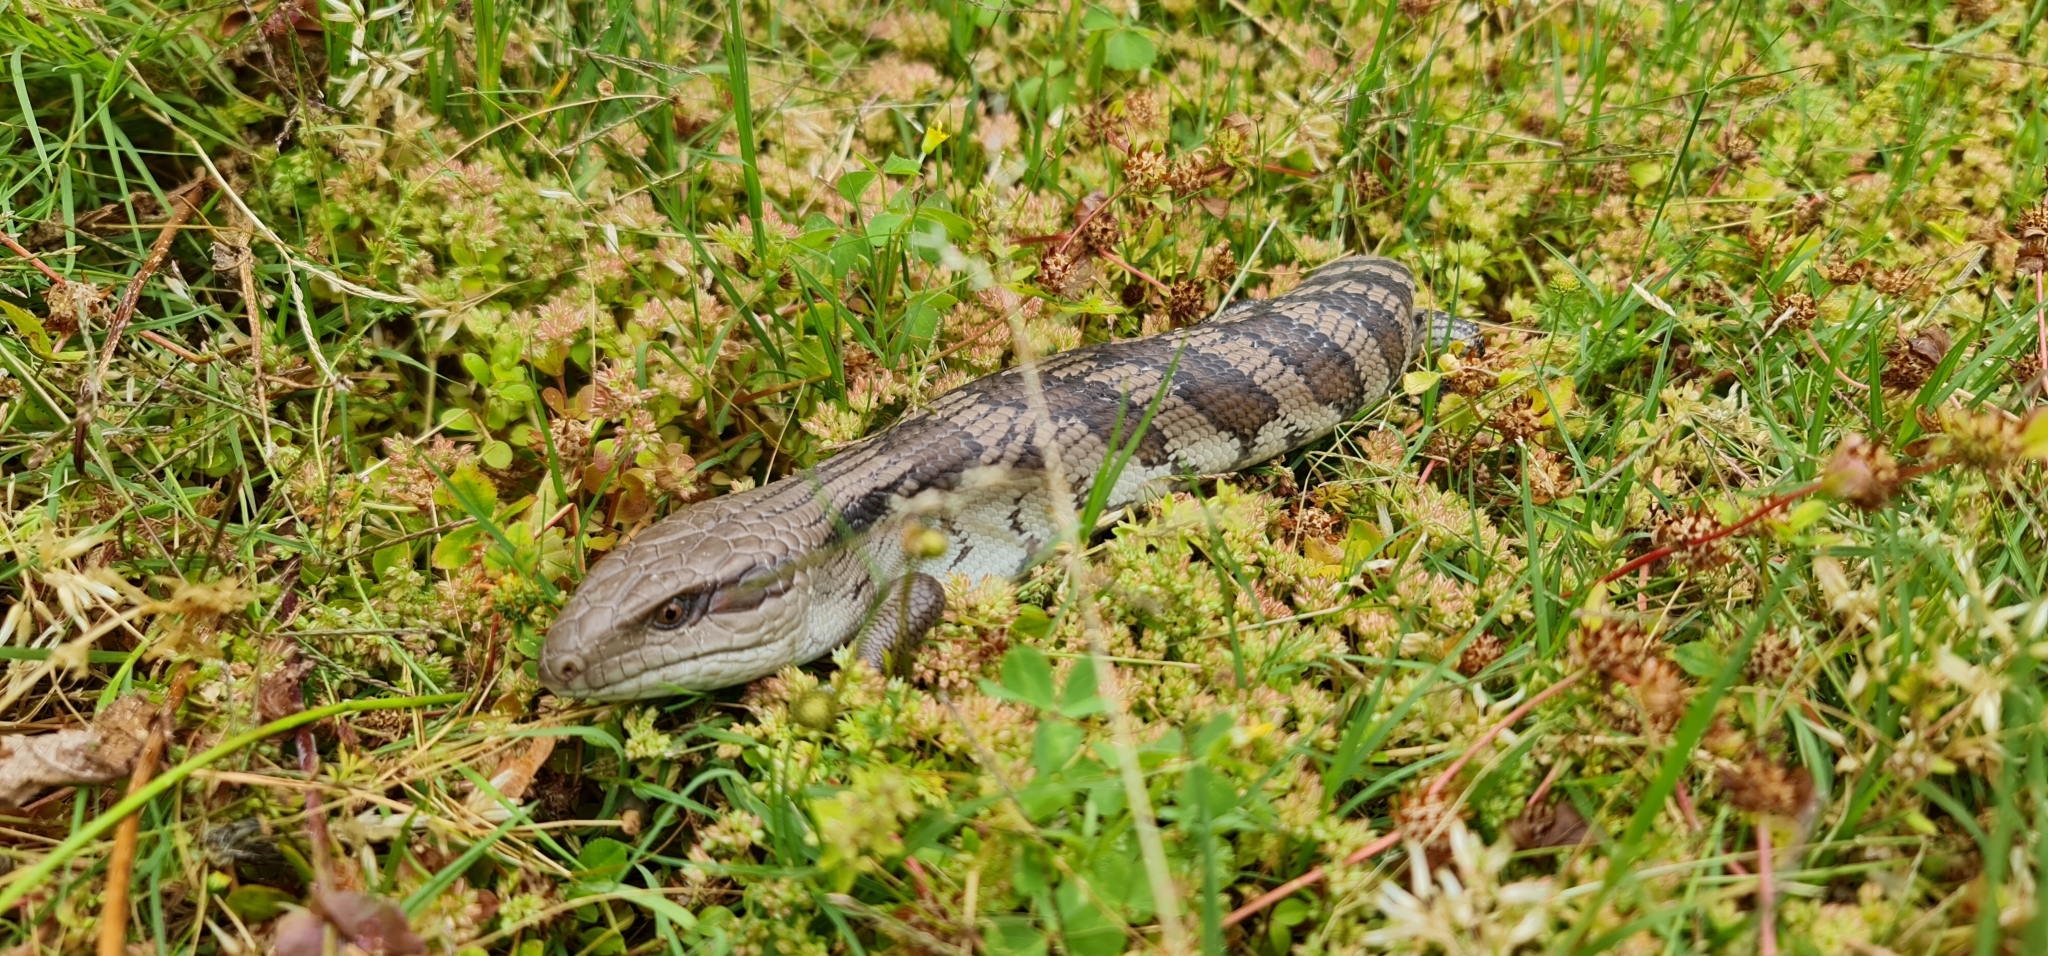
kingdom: Animalia
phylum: Chordata
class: Squamata
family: Scincidae
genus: Tiliqua
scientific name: Tiliqua scincoides
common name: Common bluetongue
